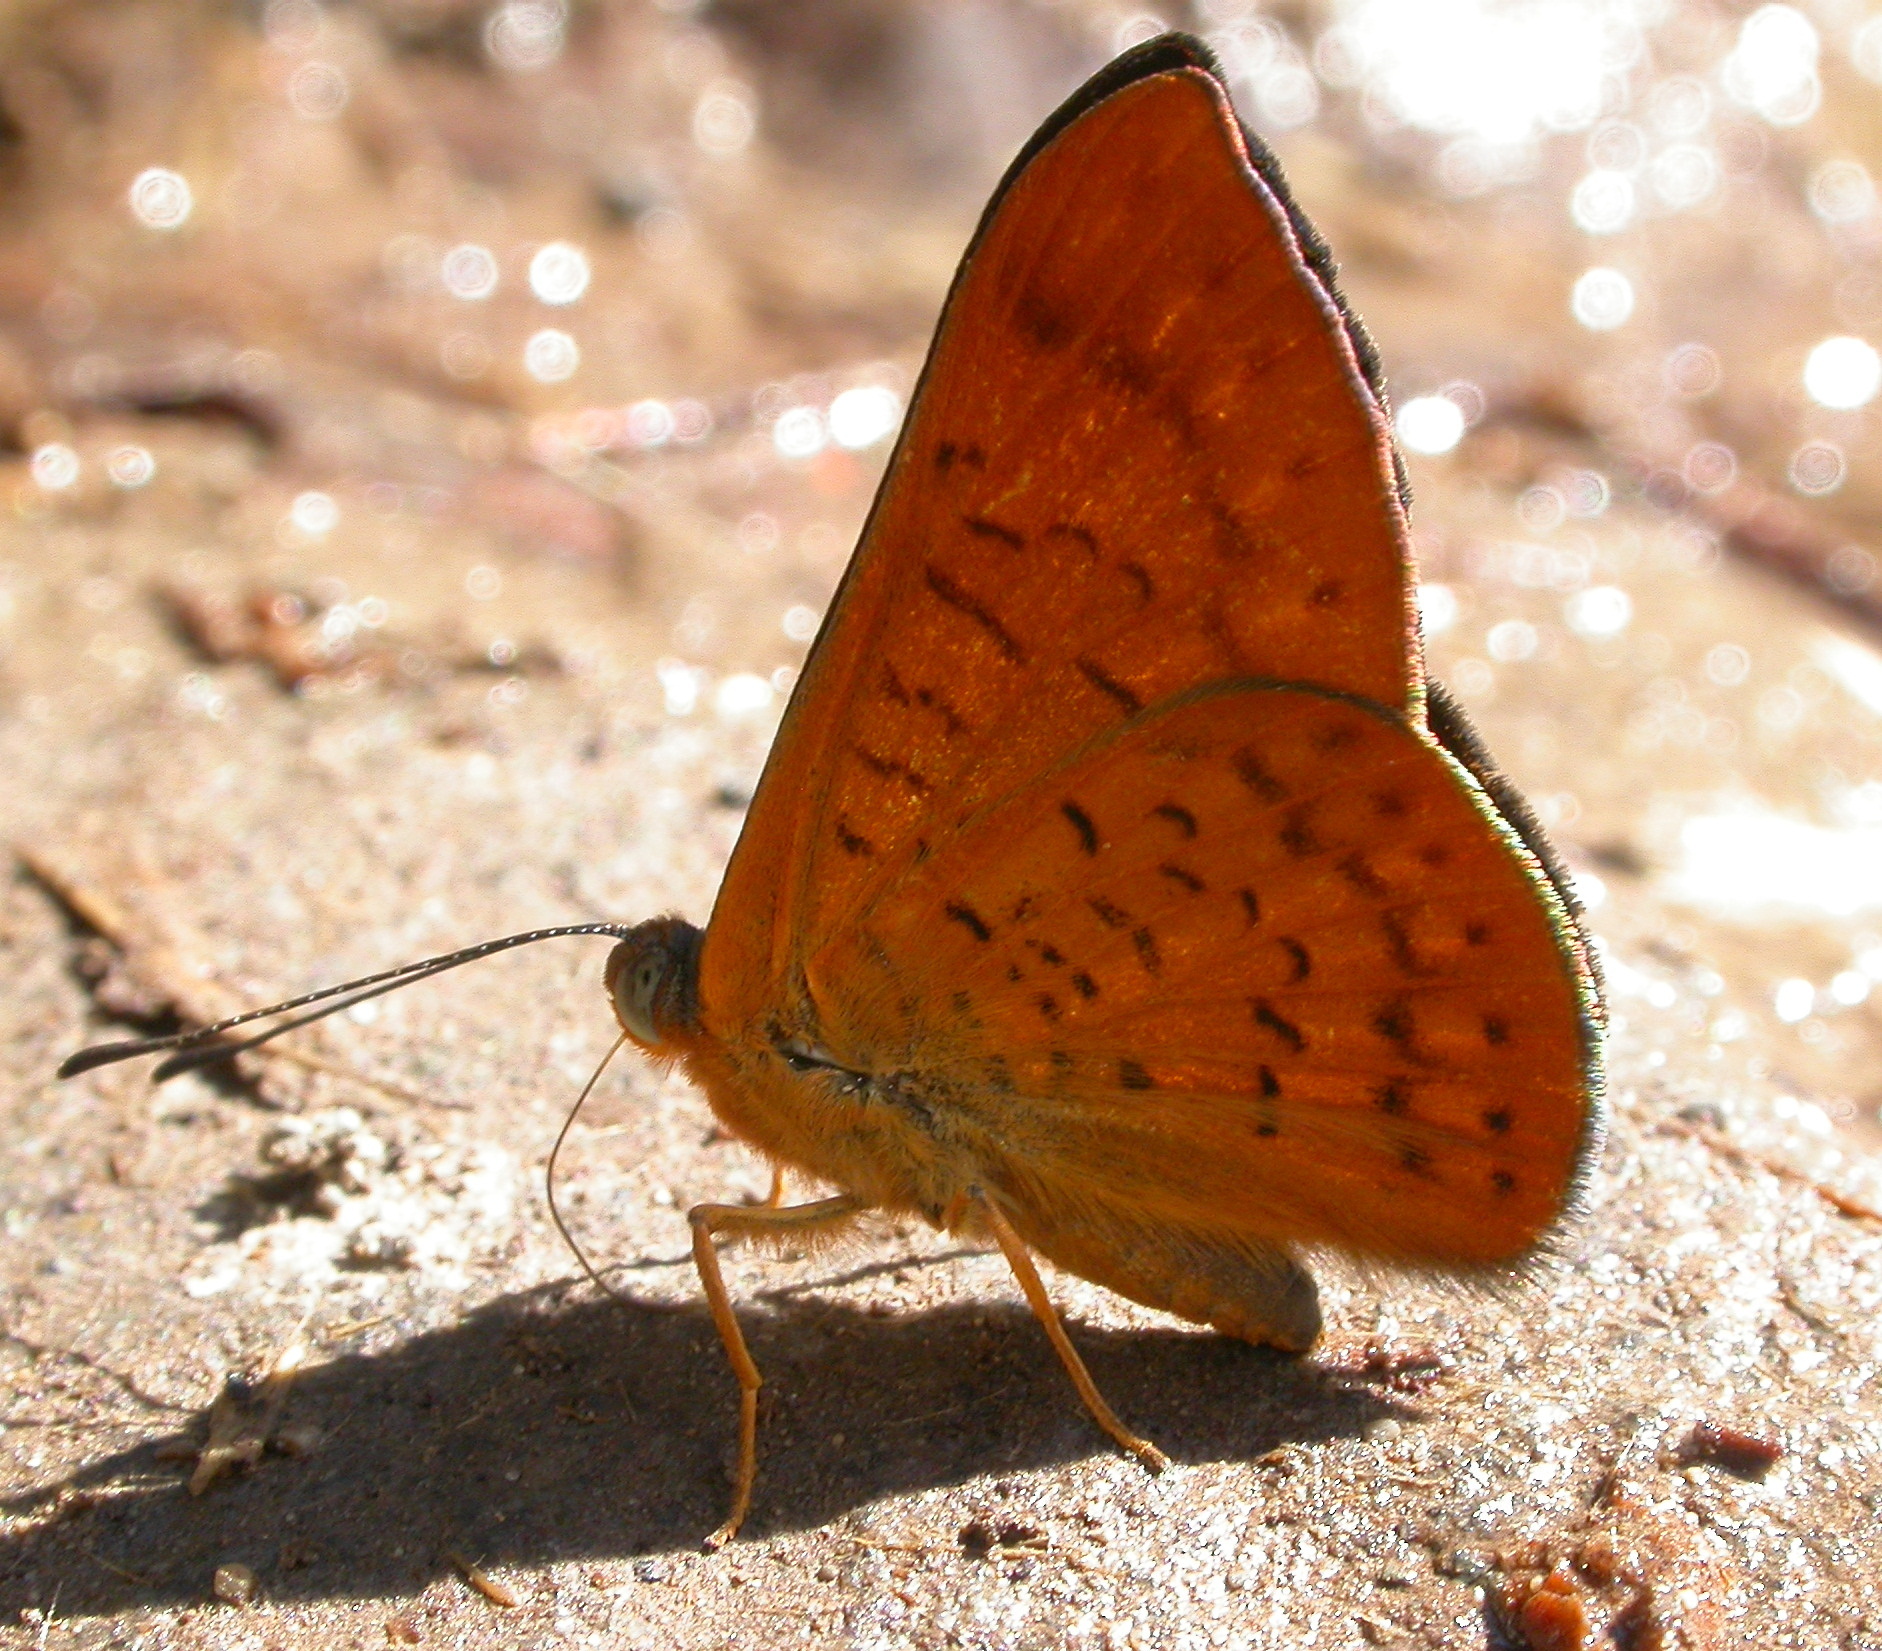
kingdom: Animalia
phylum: Arthropoda
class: Insecta
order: Lepidoptera
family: Lycaenidae
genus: Emesis
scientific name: Emesis tenedia
